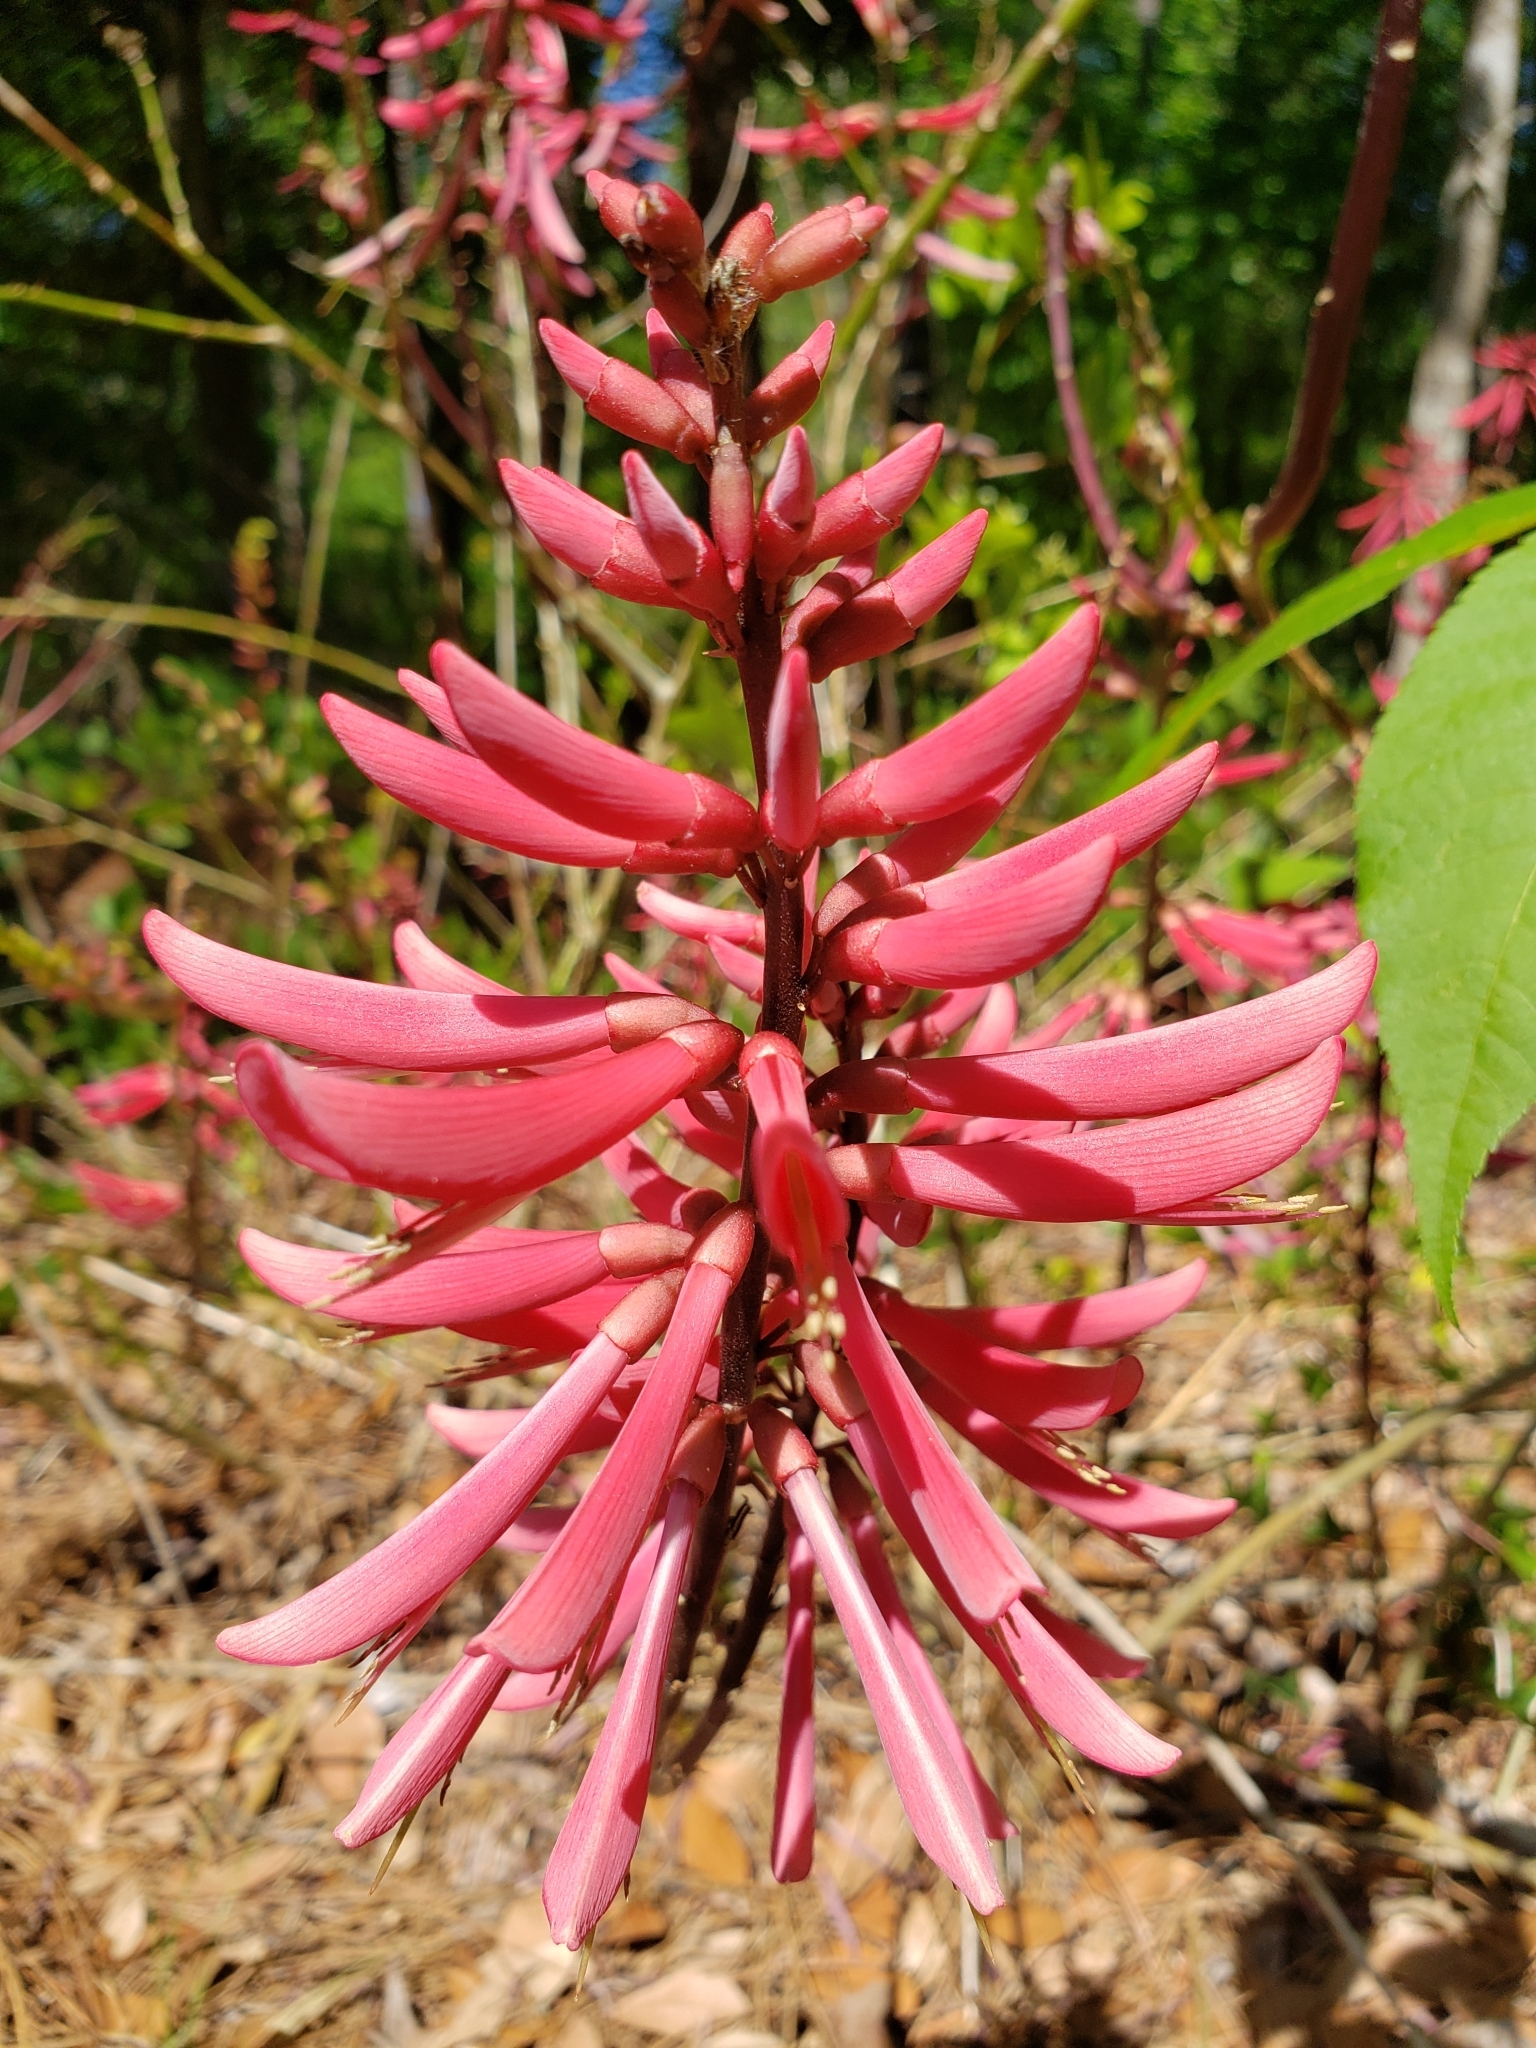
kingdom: Plantae
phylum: Tracheophyta
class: Magnoliopsida
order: Fabales
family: Fabaceae
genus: Erythrina
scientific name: Erythrina herbacea
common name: Coral-bean
